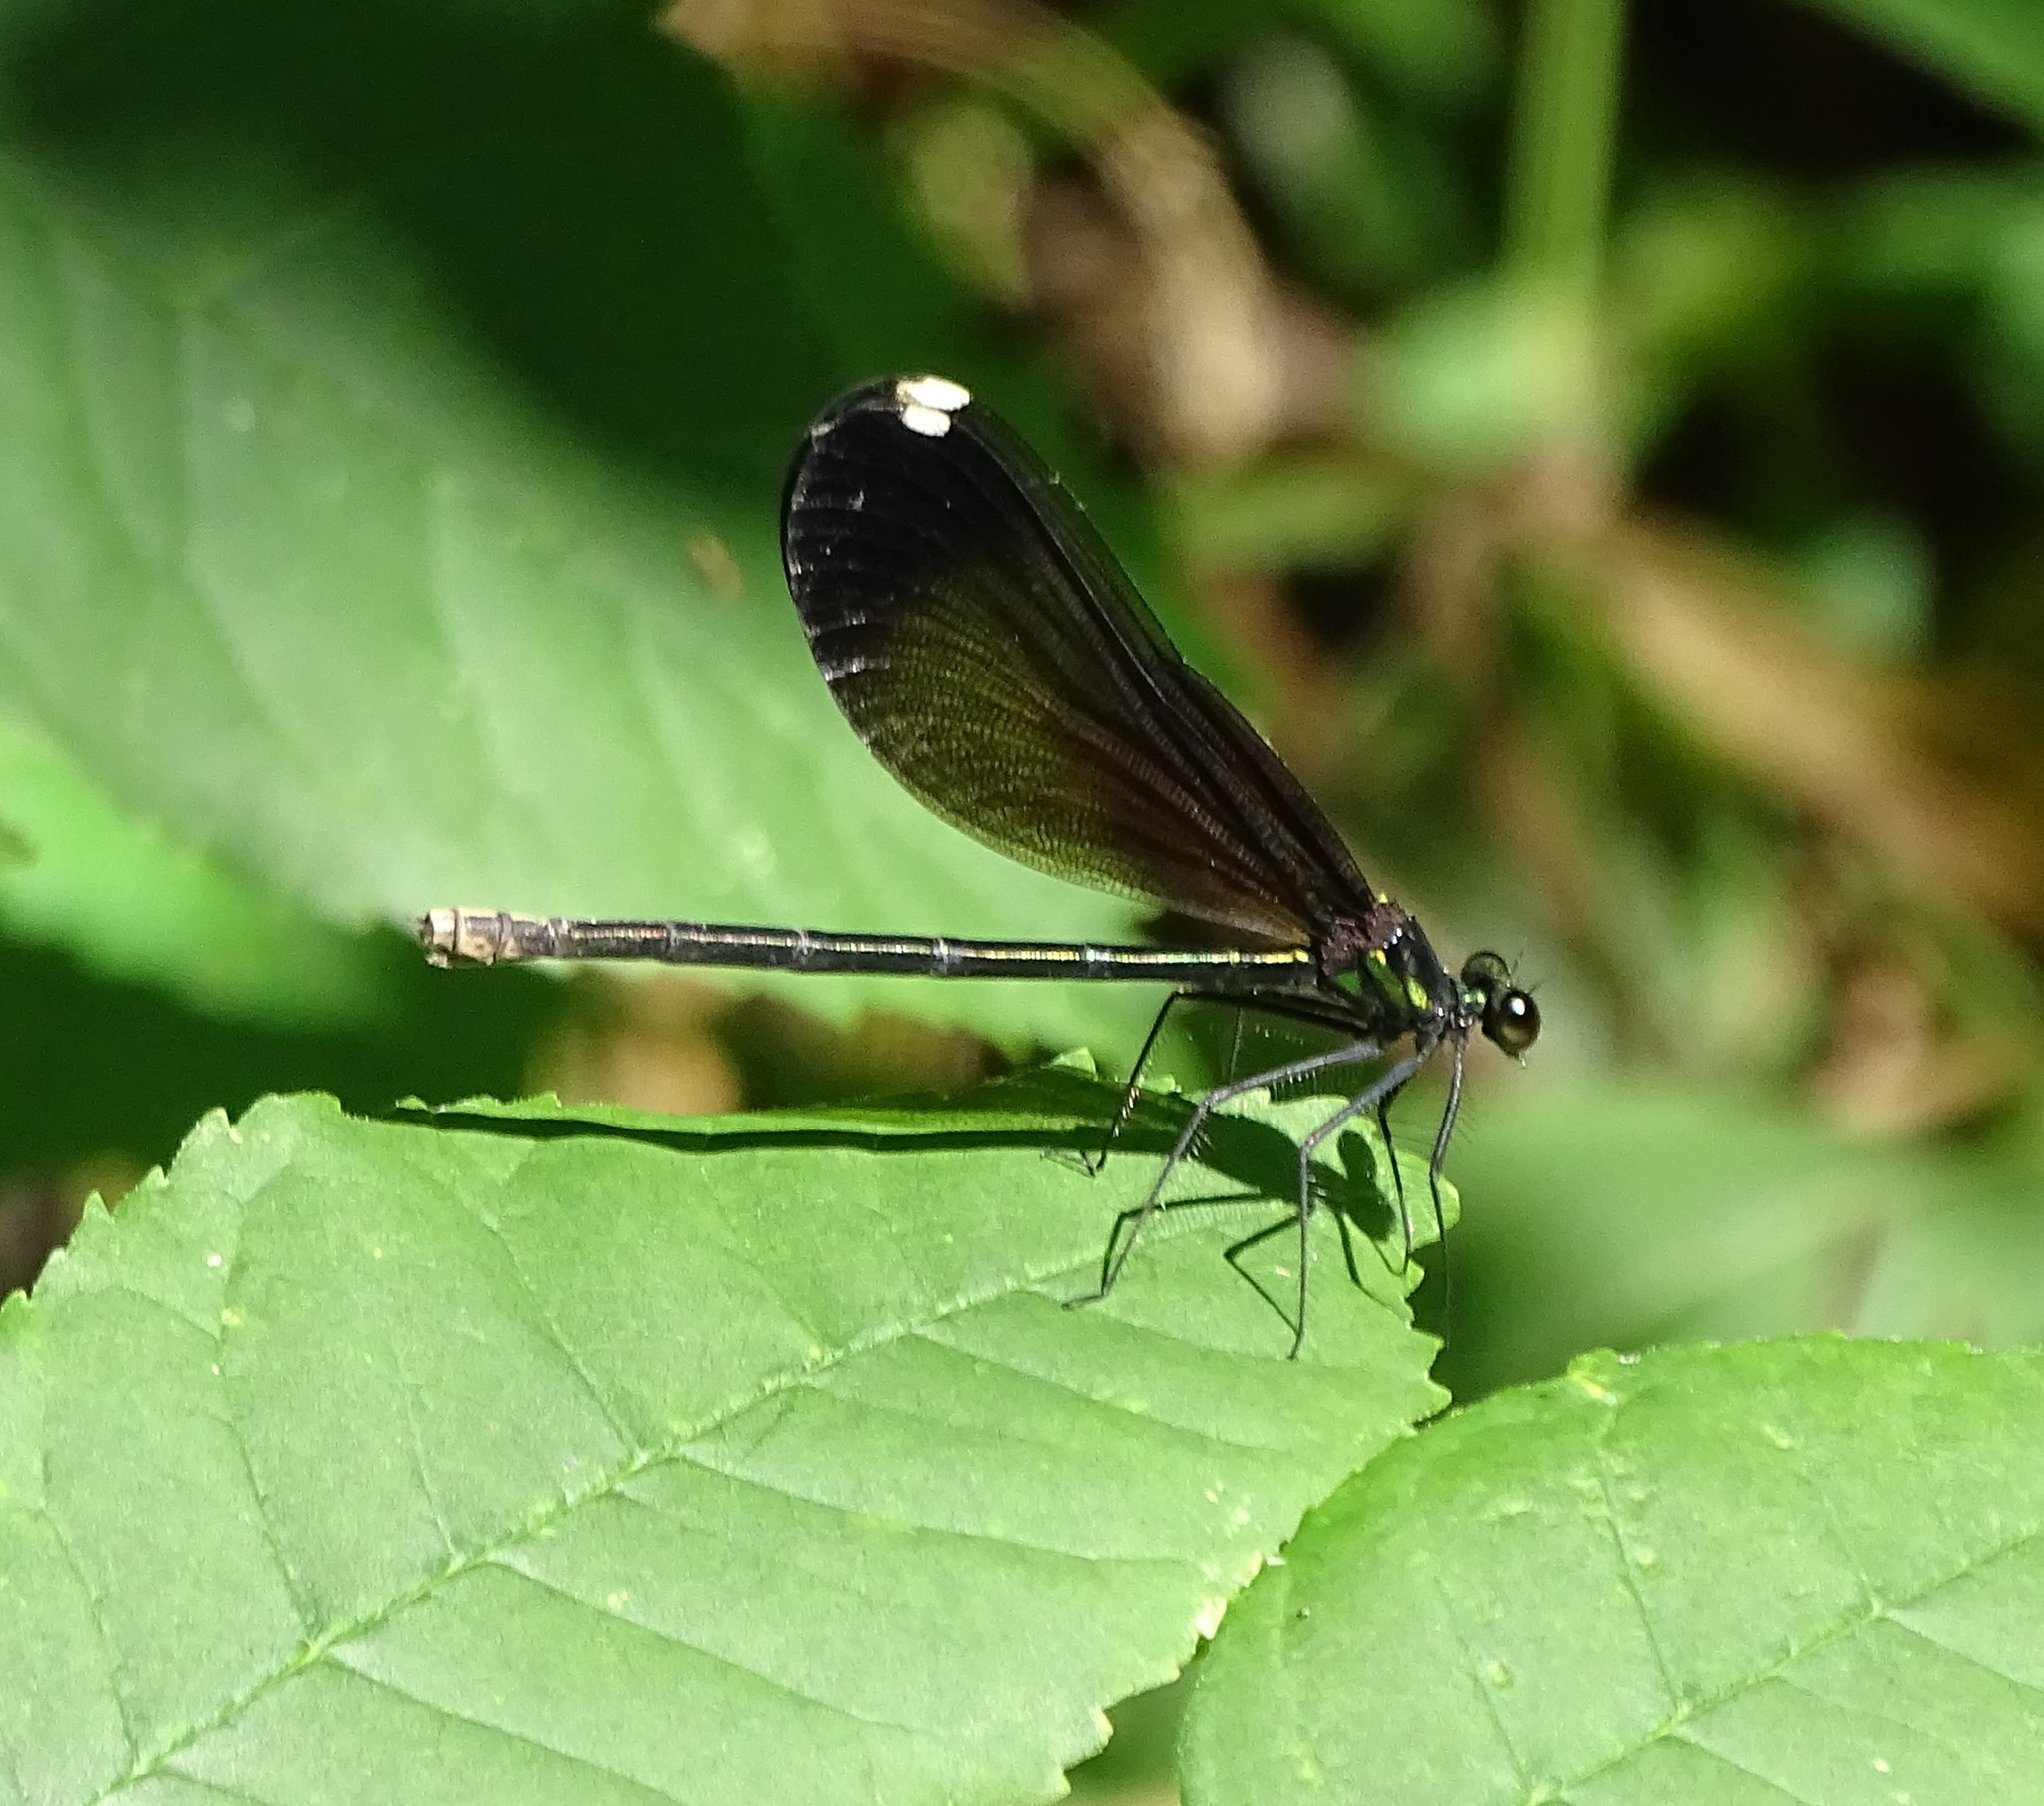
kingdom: Animalia
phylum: Arthropoda
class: Insecta
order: Odonata
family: Calopterygidae
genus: Calopteryx
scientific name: Calopteryx maculata
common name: Ebony jewelwing
